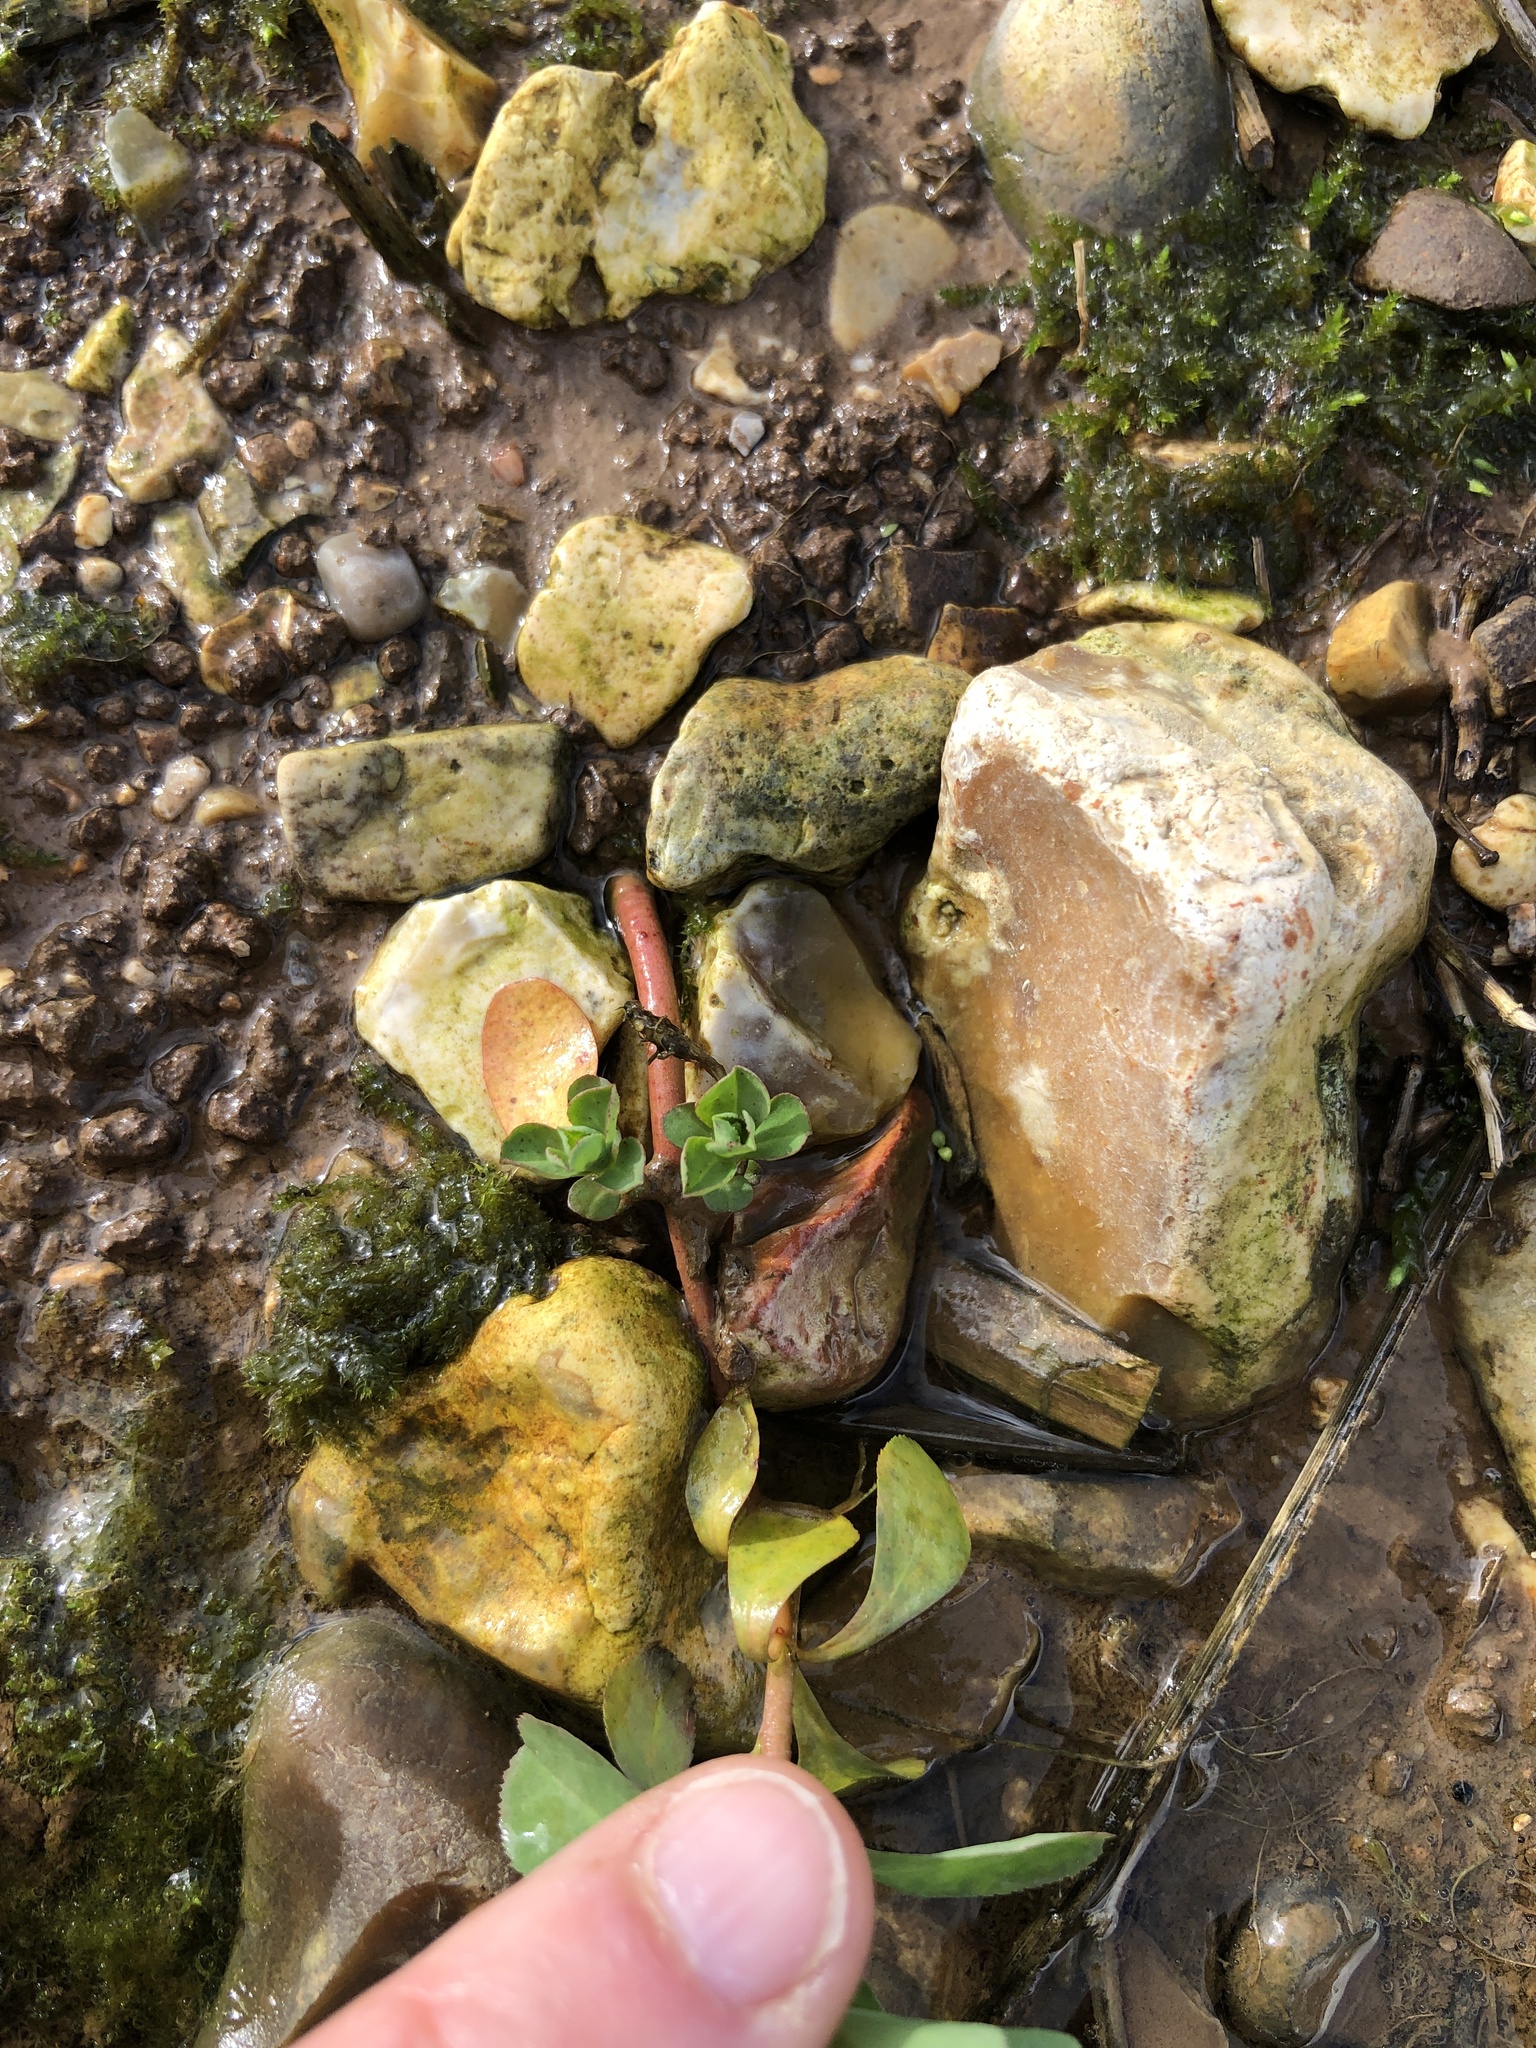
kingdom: Plantae
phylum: Tracheophyta
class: Magnoliopsida
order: Malpighiales
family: Euphorbiaceae
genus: Euphorbia
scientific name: Euphorbia helioscopia
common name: Sun spurge
